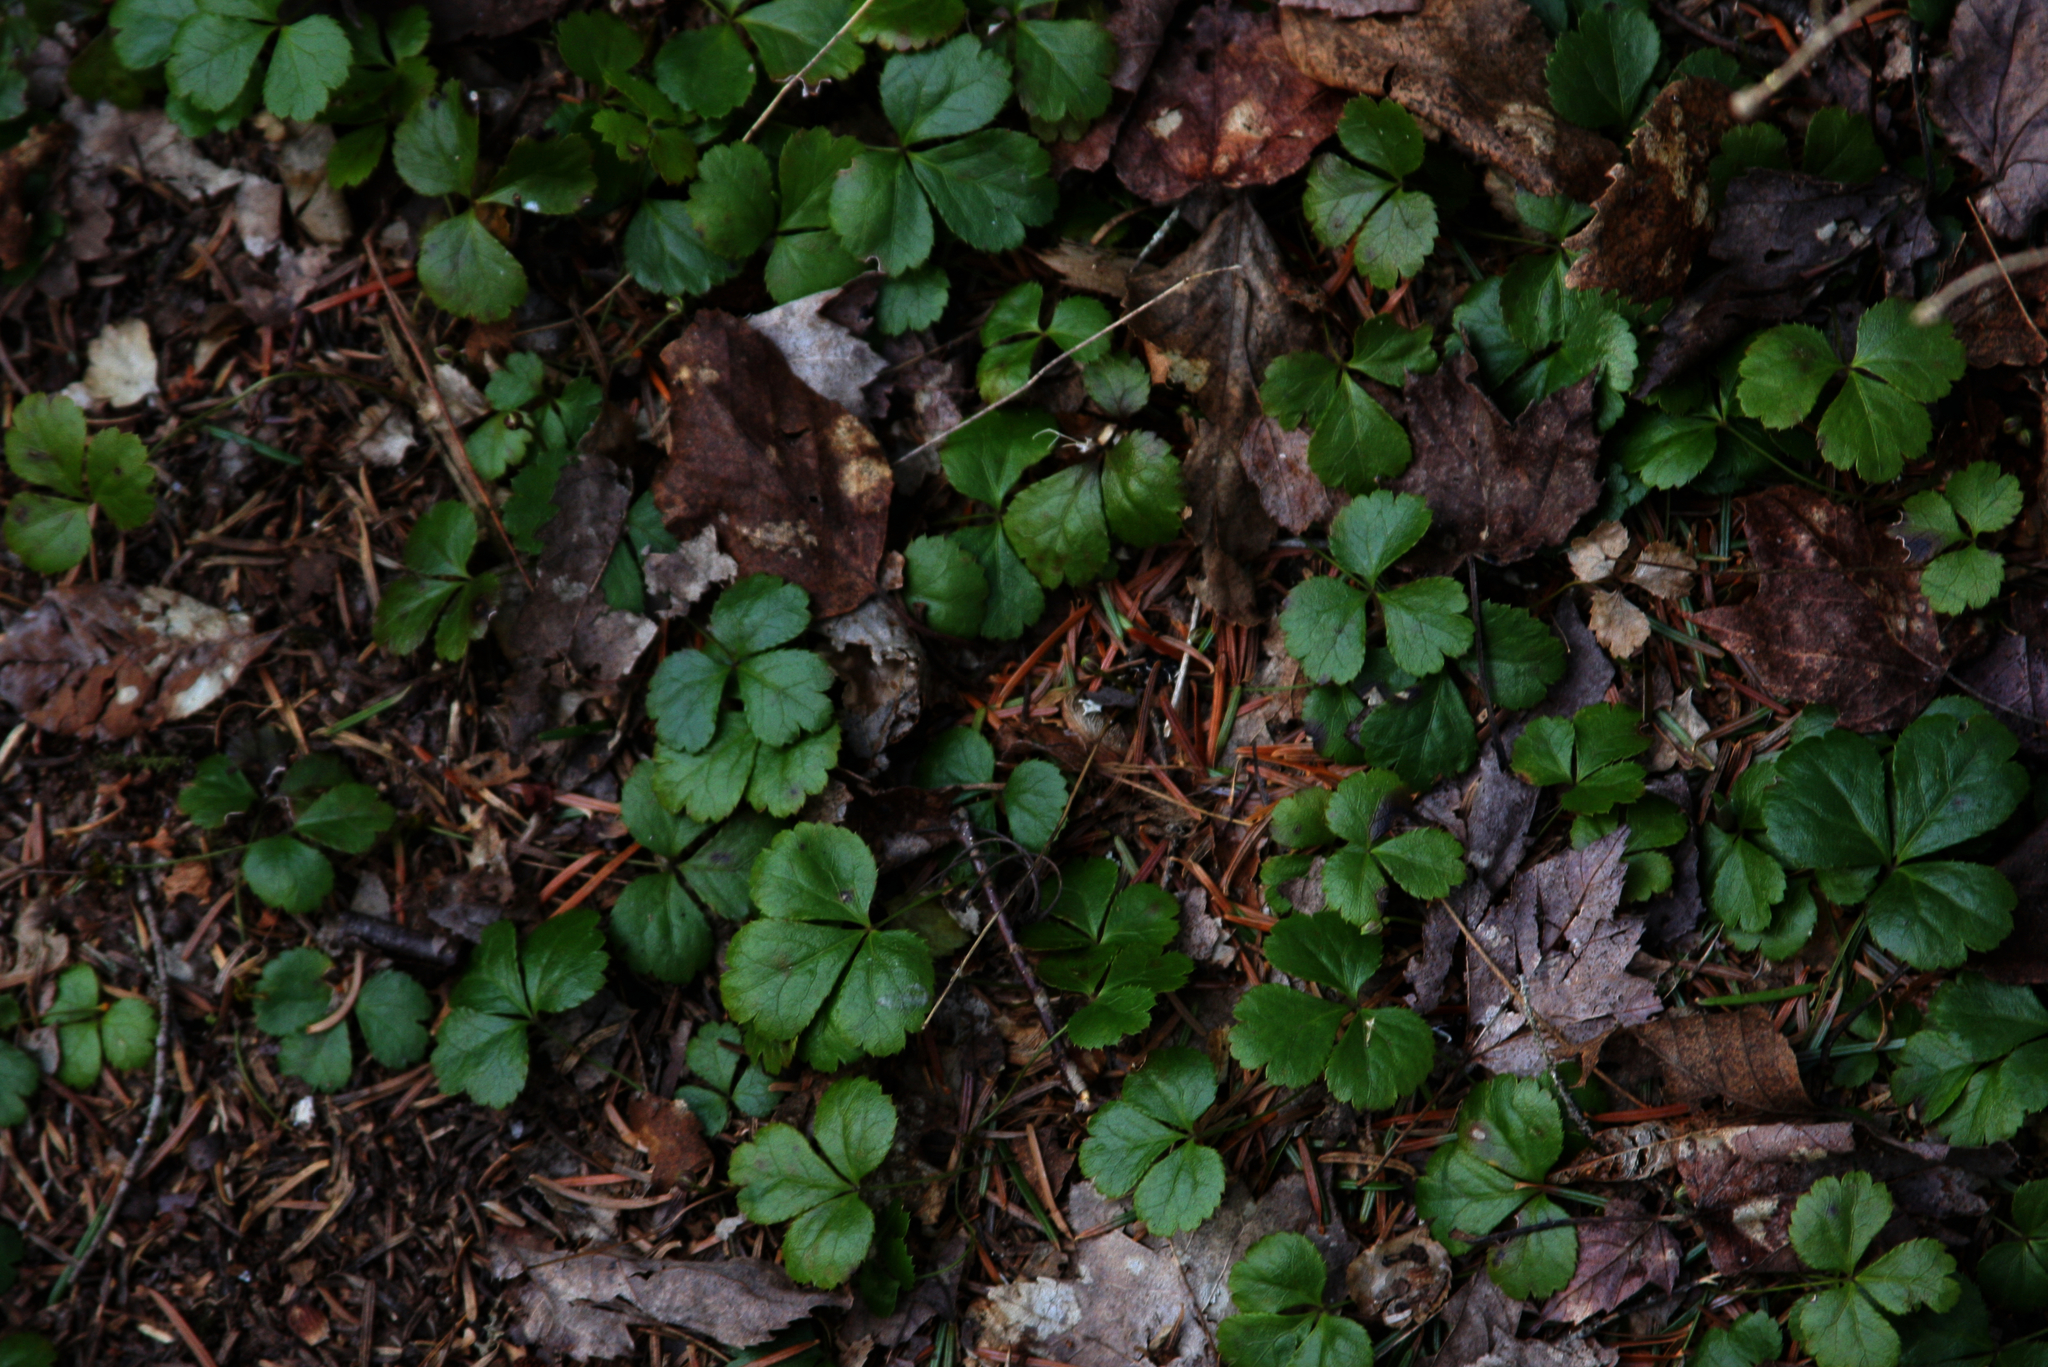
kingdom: Plantae
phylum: Tracheophyta
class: Magnoliopsida
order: Ranunculales
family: Ranunculaceae
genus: Coptis
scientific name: Coptis trifolia
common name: Canker-root
